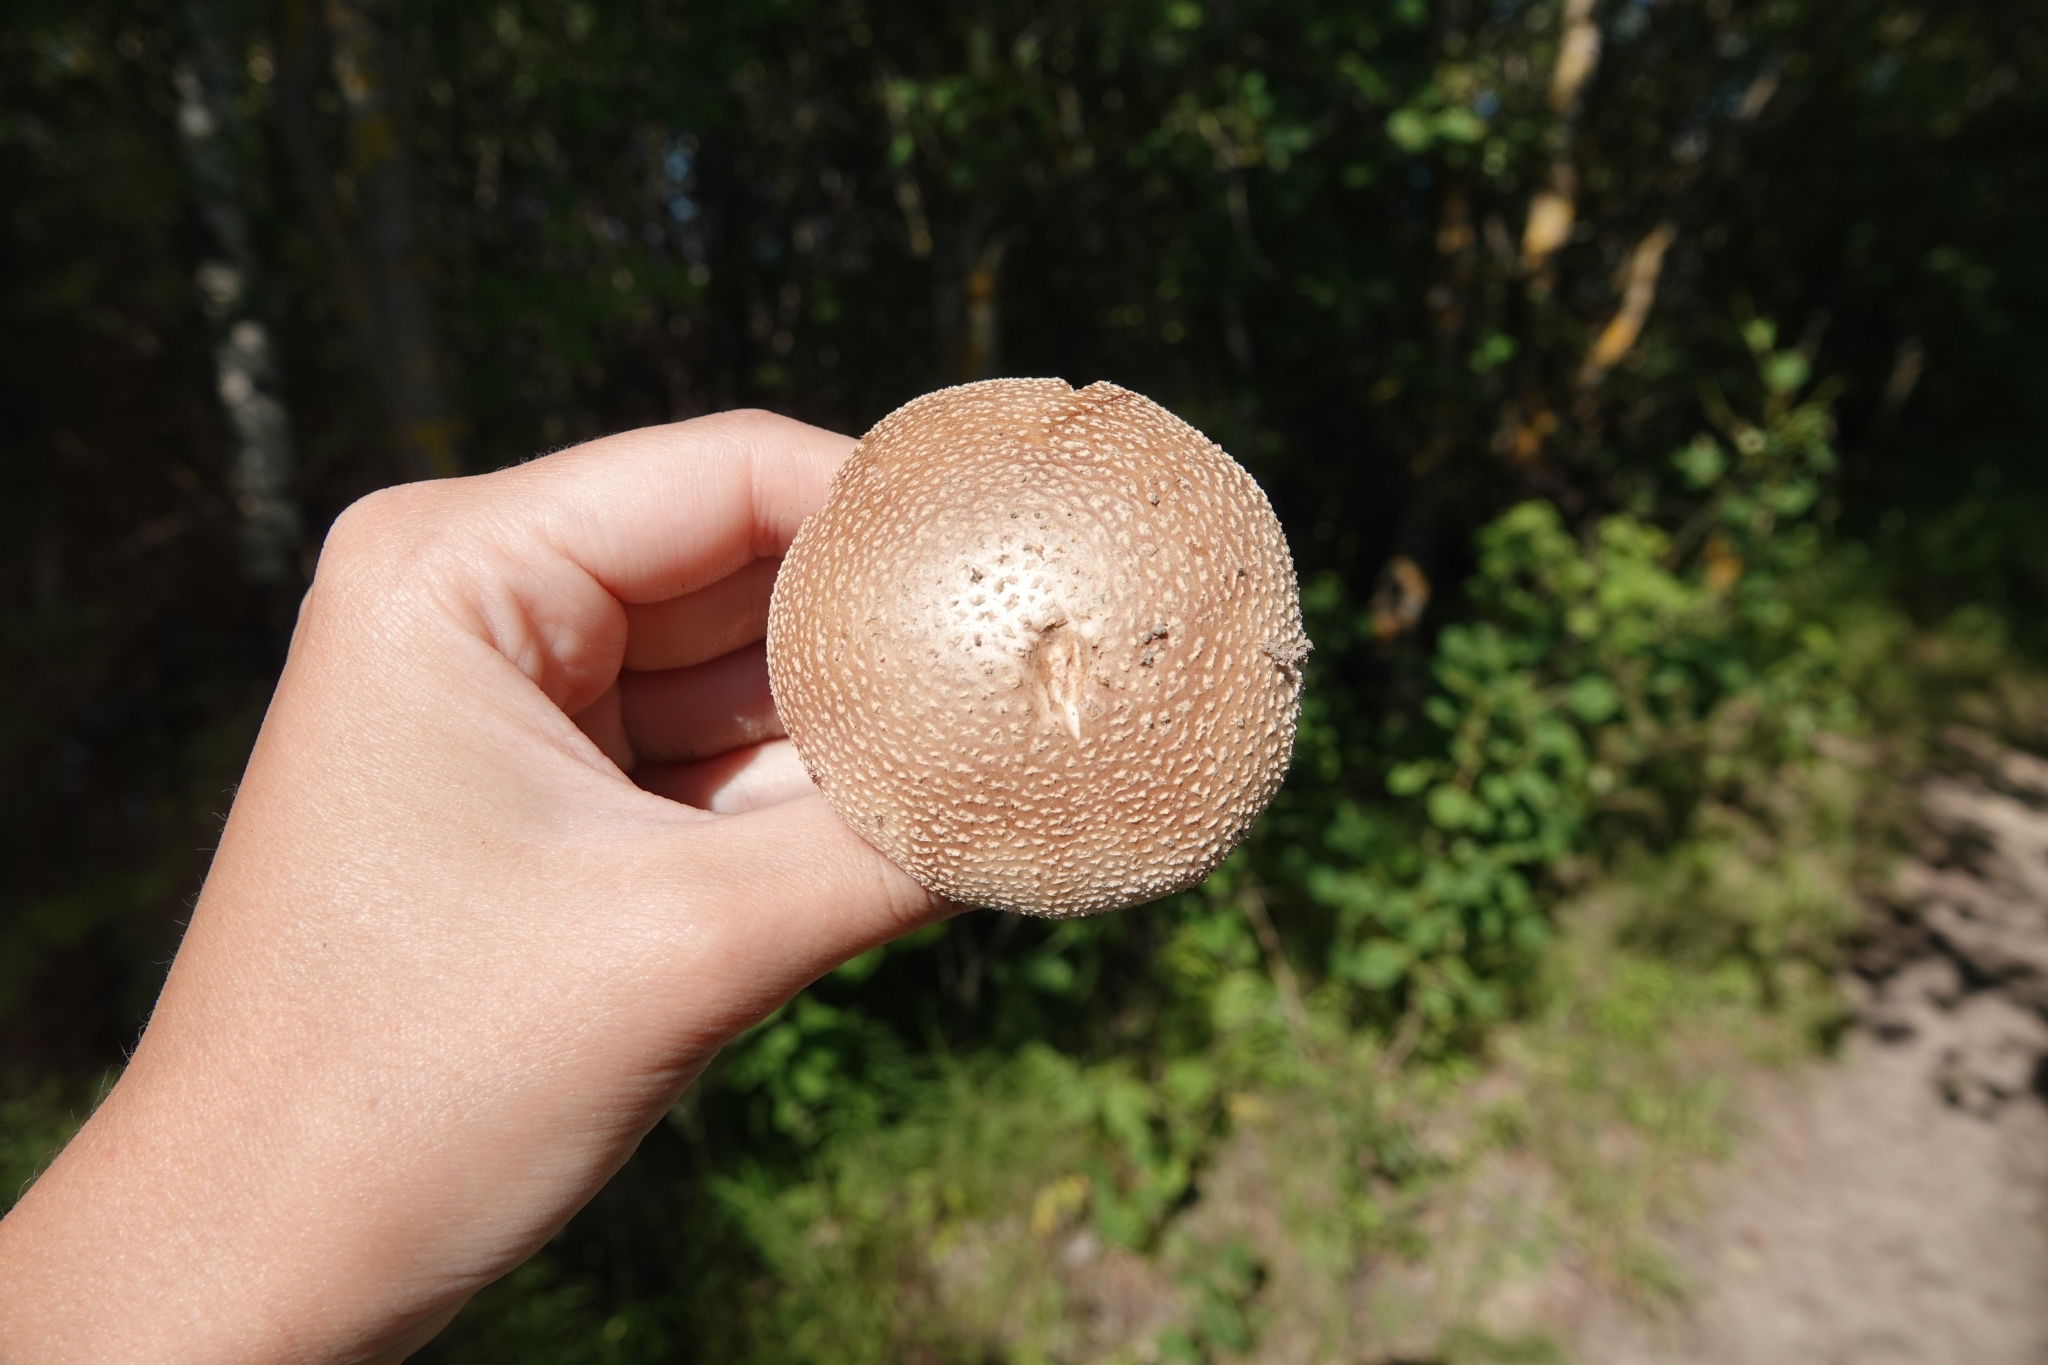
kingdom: Fungi
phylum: Basidiomycota
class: Agaricomycetes
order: Agaricales
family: Amanitaceae
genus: Amanita
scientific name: Amanita rubescens
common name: Blusher
